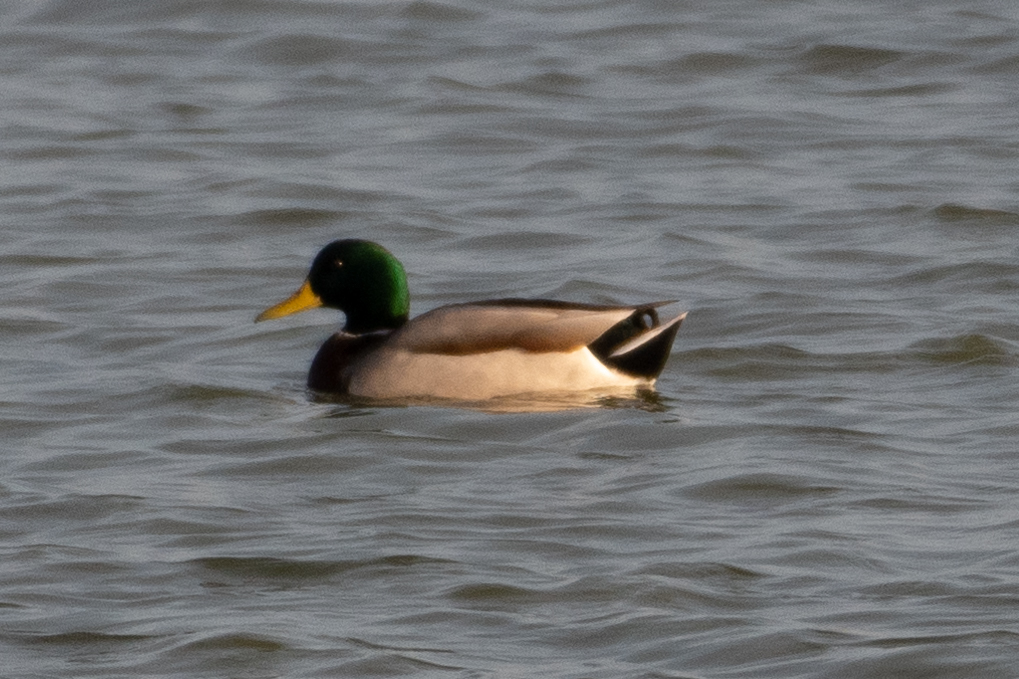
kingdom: Animalia
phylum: Chordata
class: Aves
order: Anseriformes
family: Anatidae
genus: Anas
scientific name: Anas platyrhynchos
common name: Mallard
